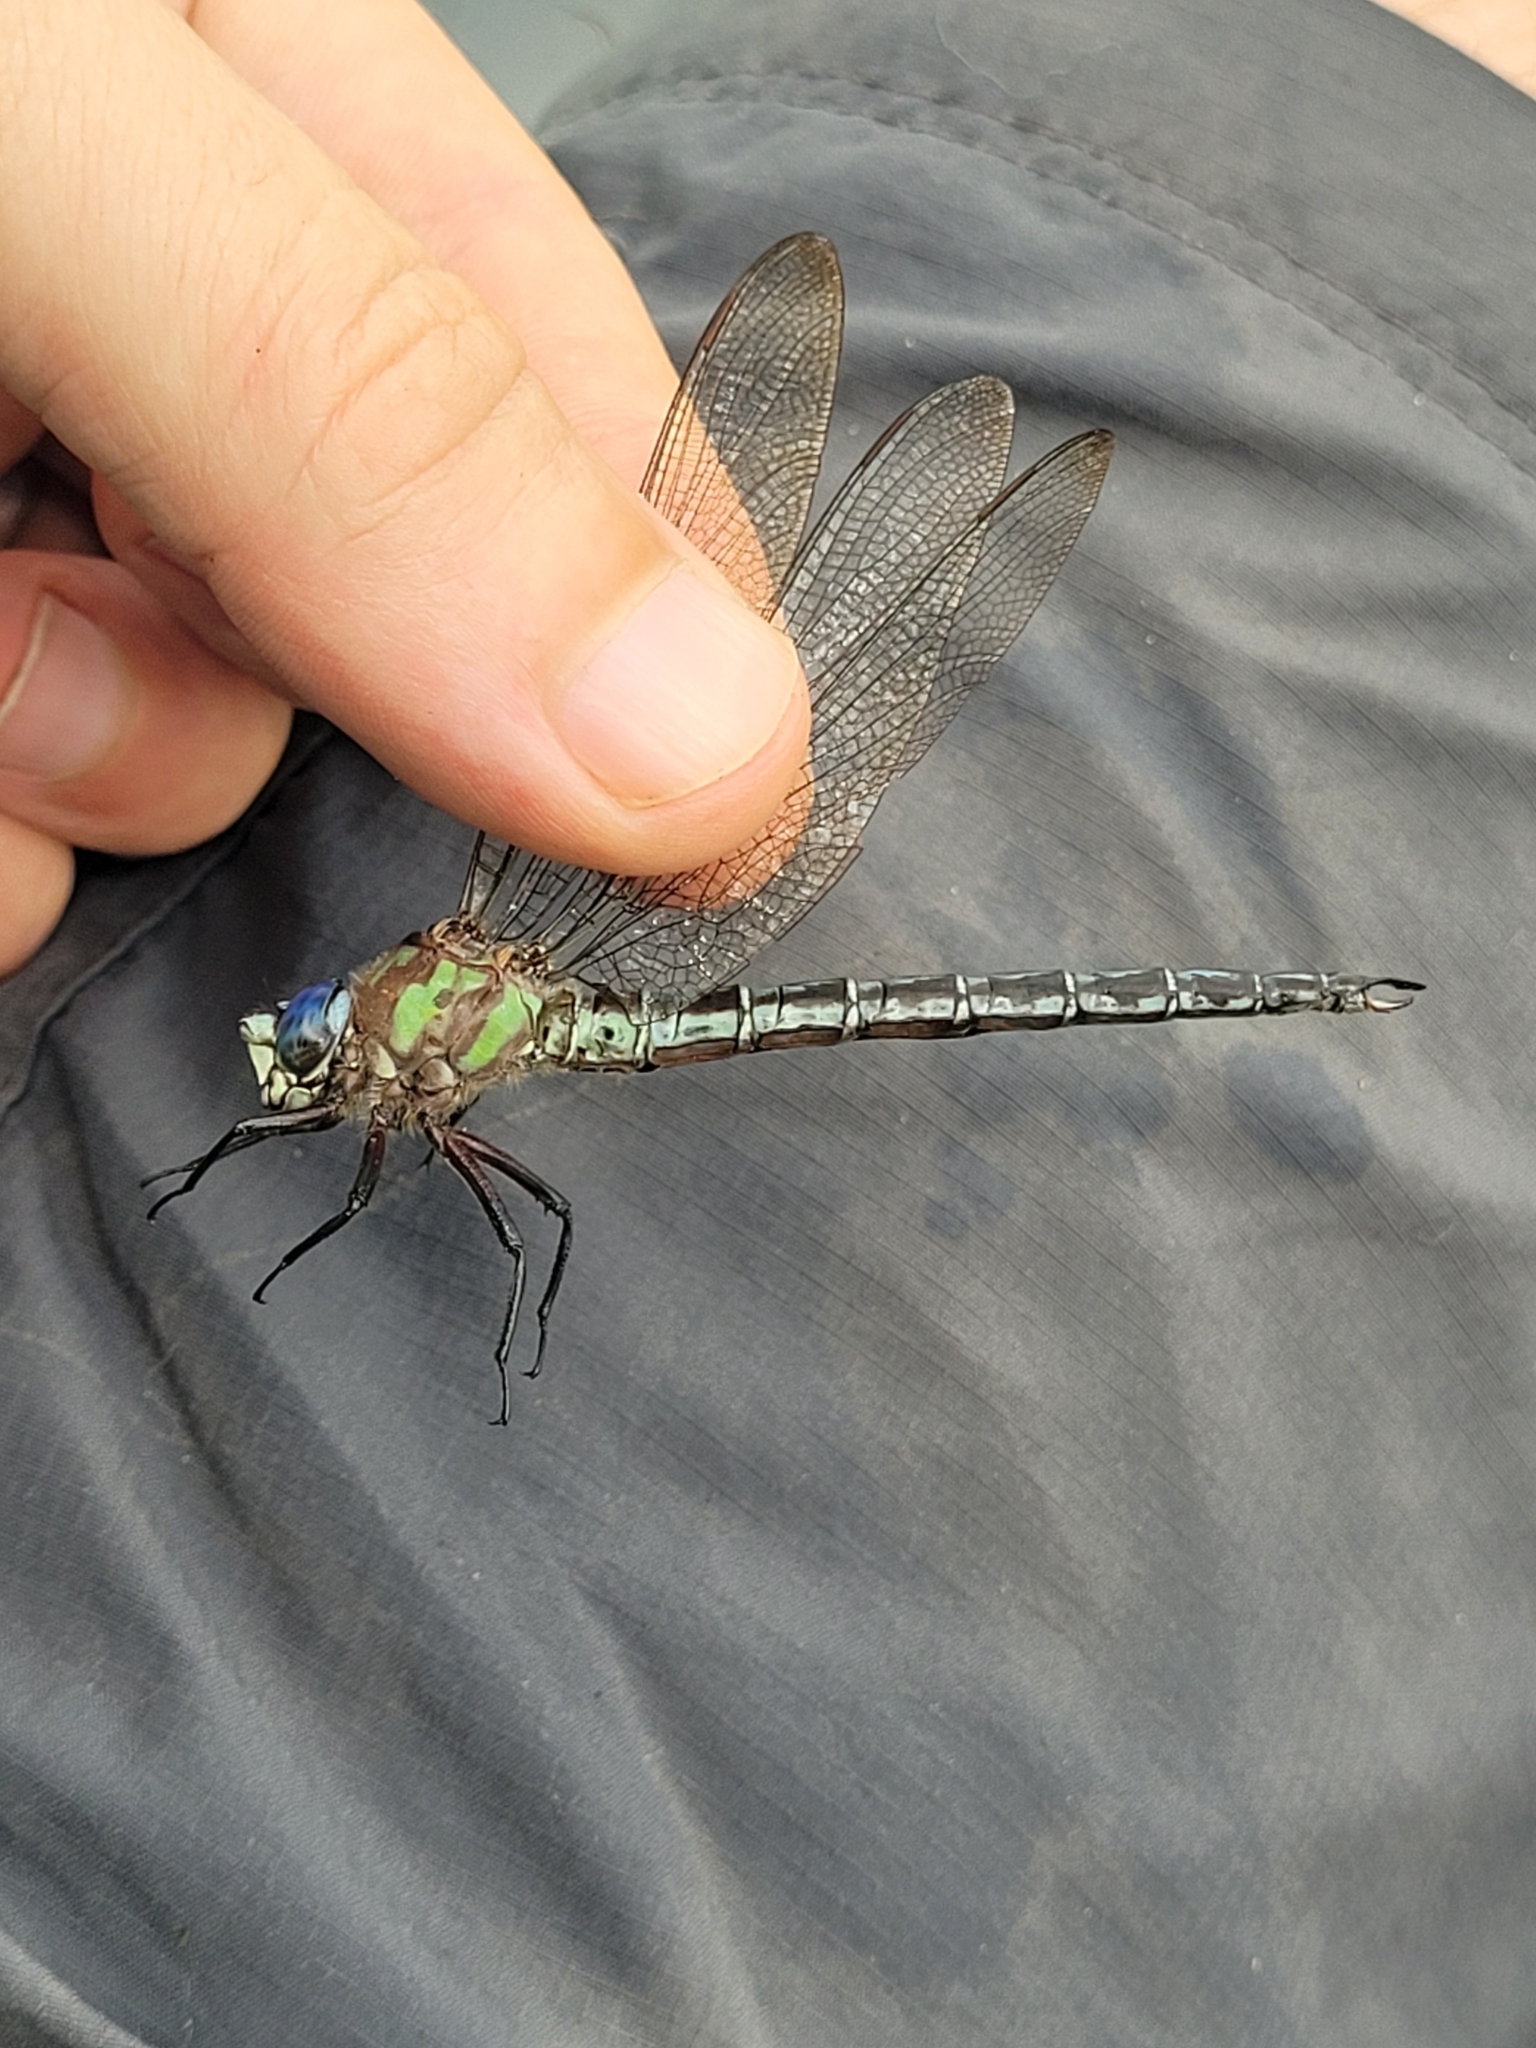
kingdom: Animalia
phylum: Arthropoda
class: Insecta
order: Odonata
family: Aeshnidae
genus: Nasiaeschna
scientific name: Nasiaeschna pentacantha
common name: Cyrano darner
